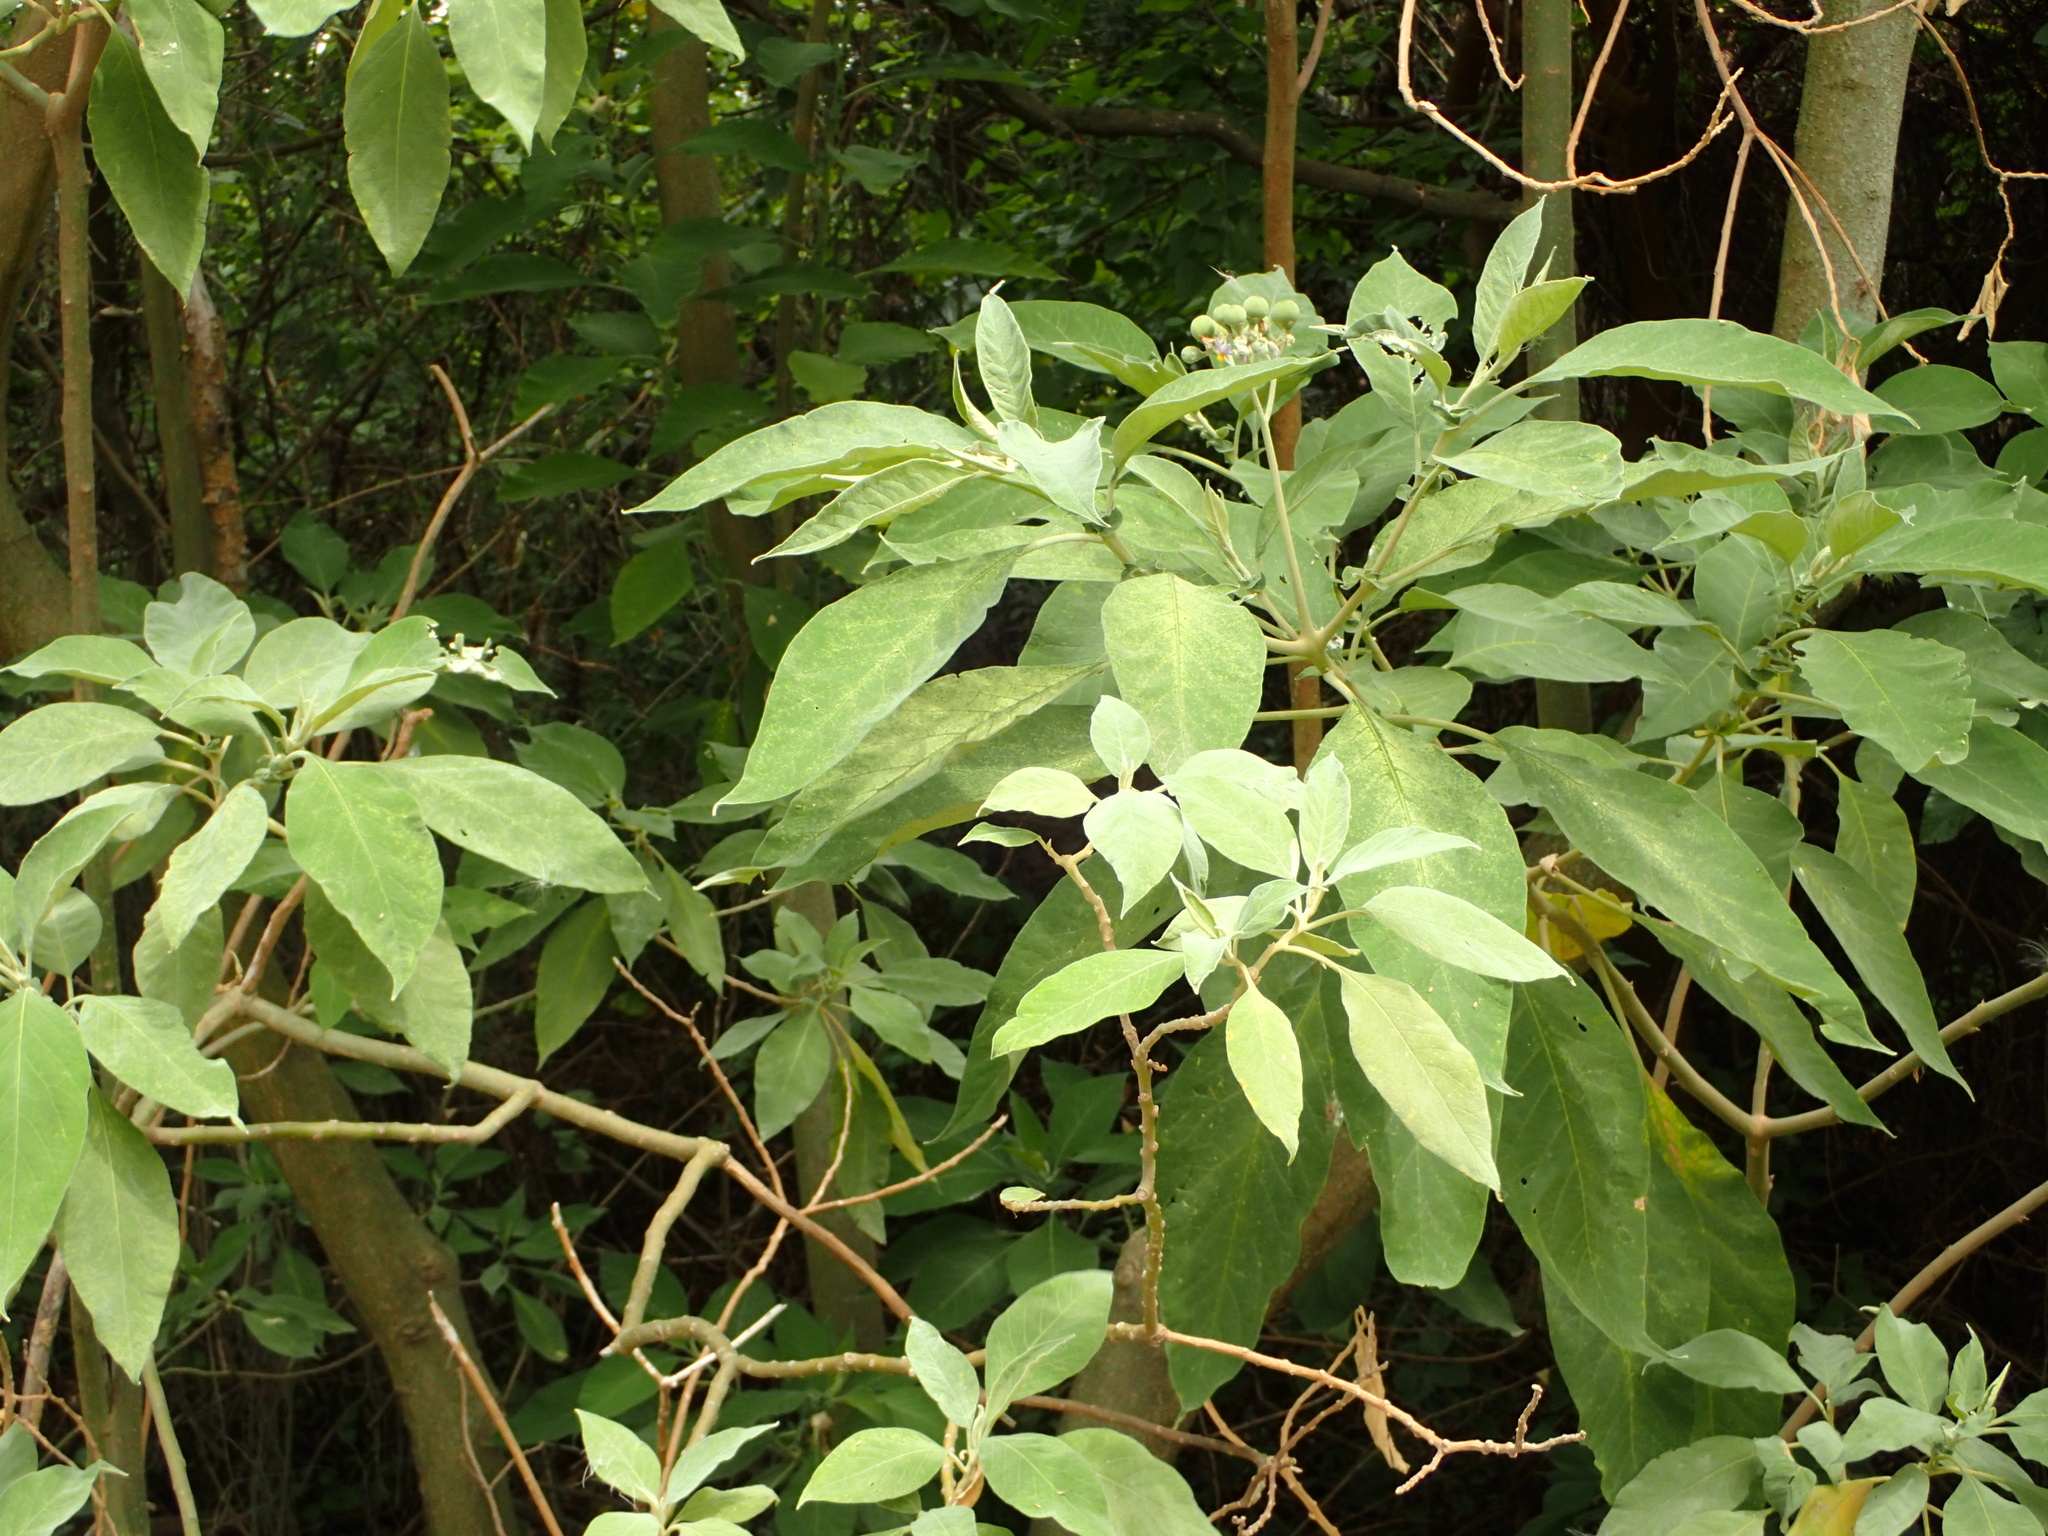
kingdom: Plantae
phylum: Tracheophyta
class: Magnoliopsida
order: Solanales
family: Solanaceae
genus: Solanum
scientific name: Solanum granulosoleprosum
